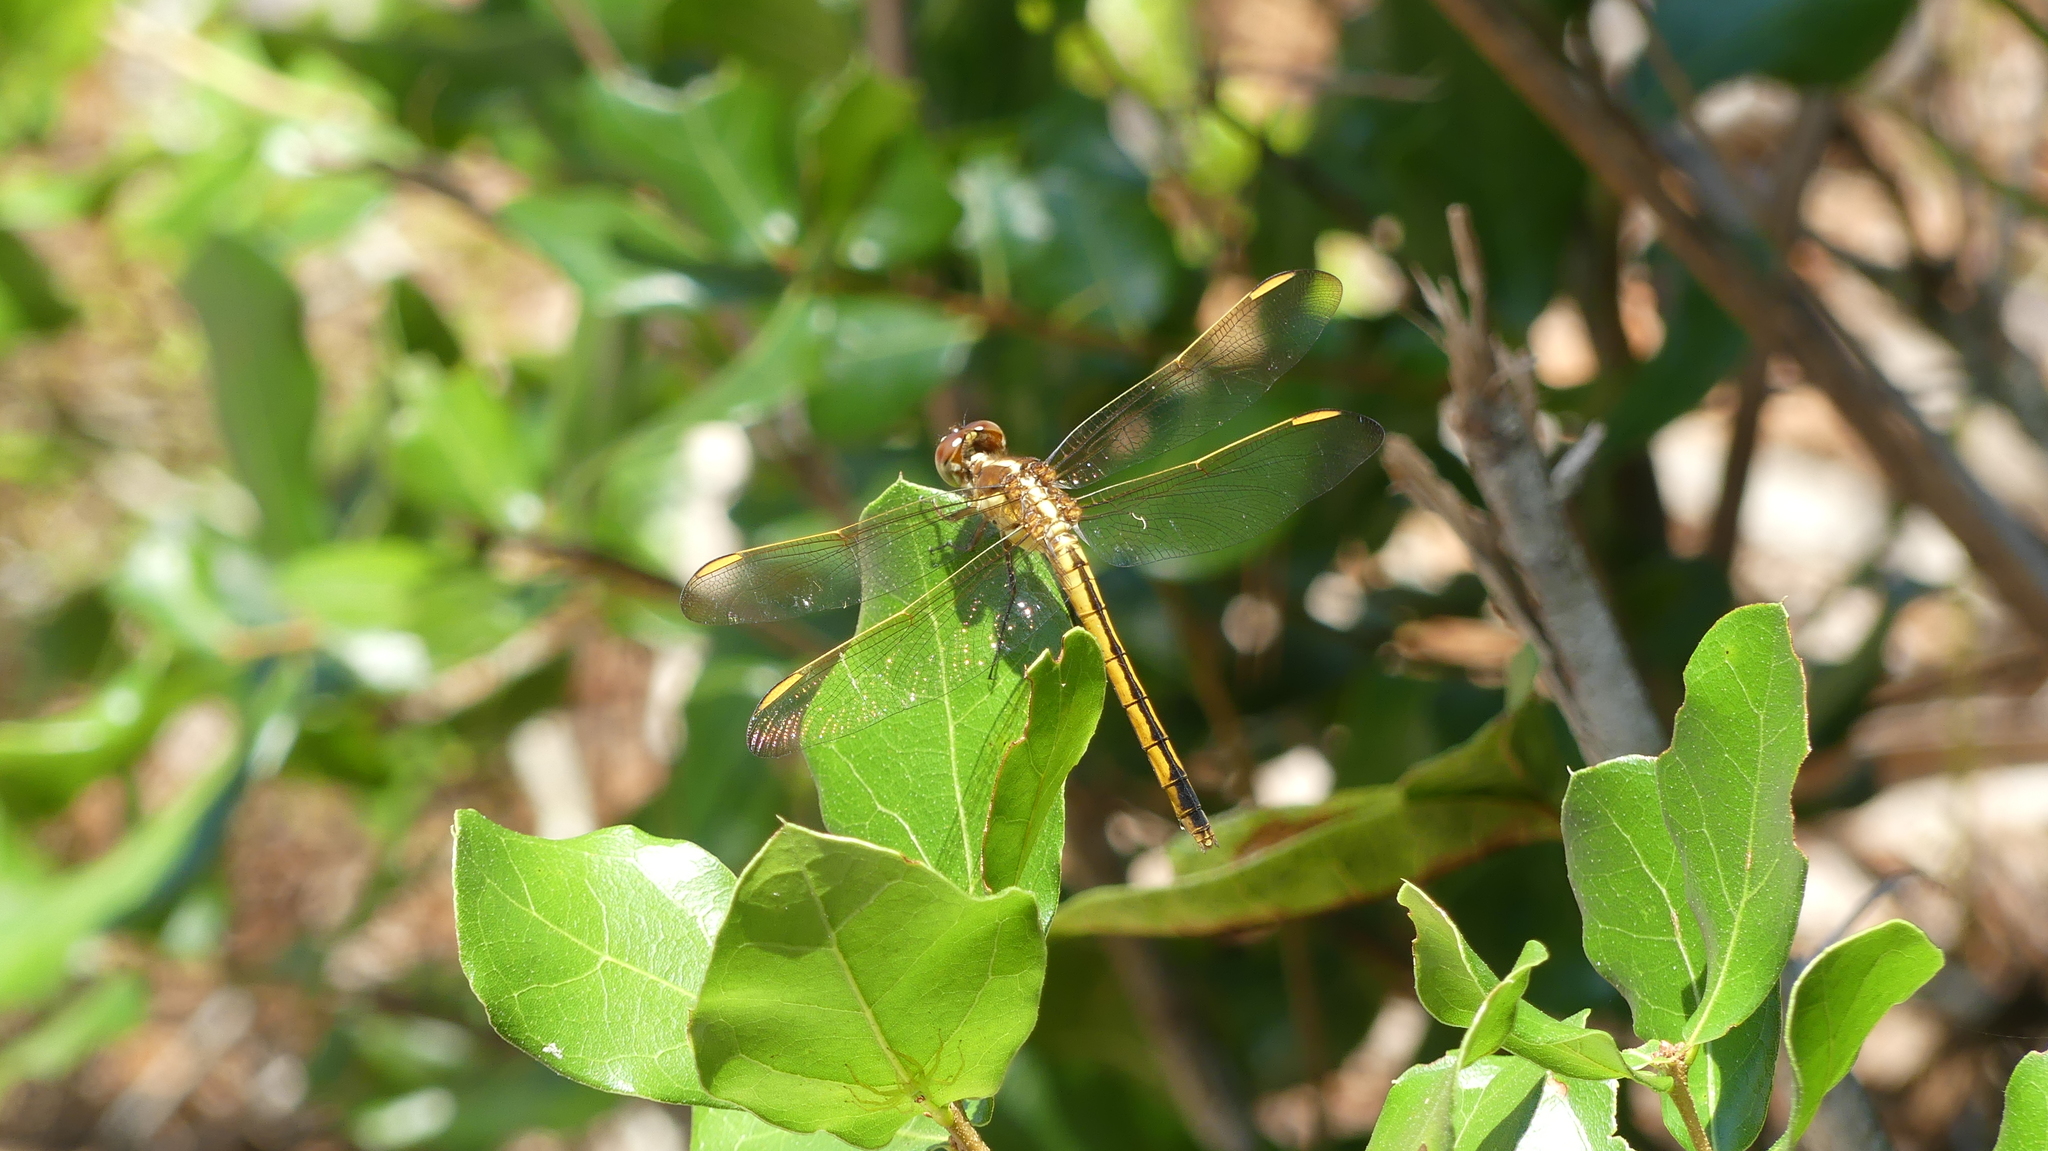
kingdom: Animalia
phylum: Arthropoda
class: Insecta
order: Odonata
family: Libellulidae
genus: Libellula
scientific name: Libellula auripennis
